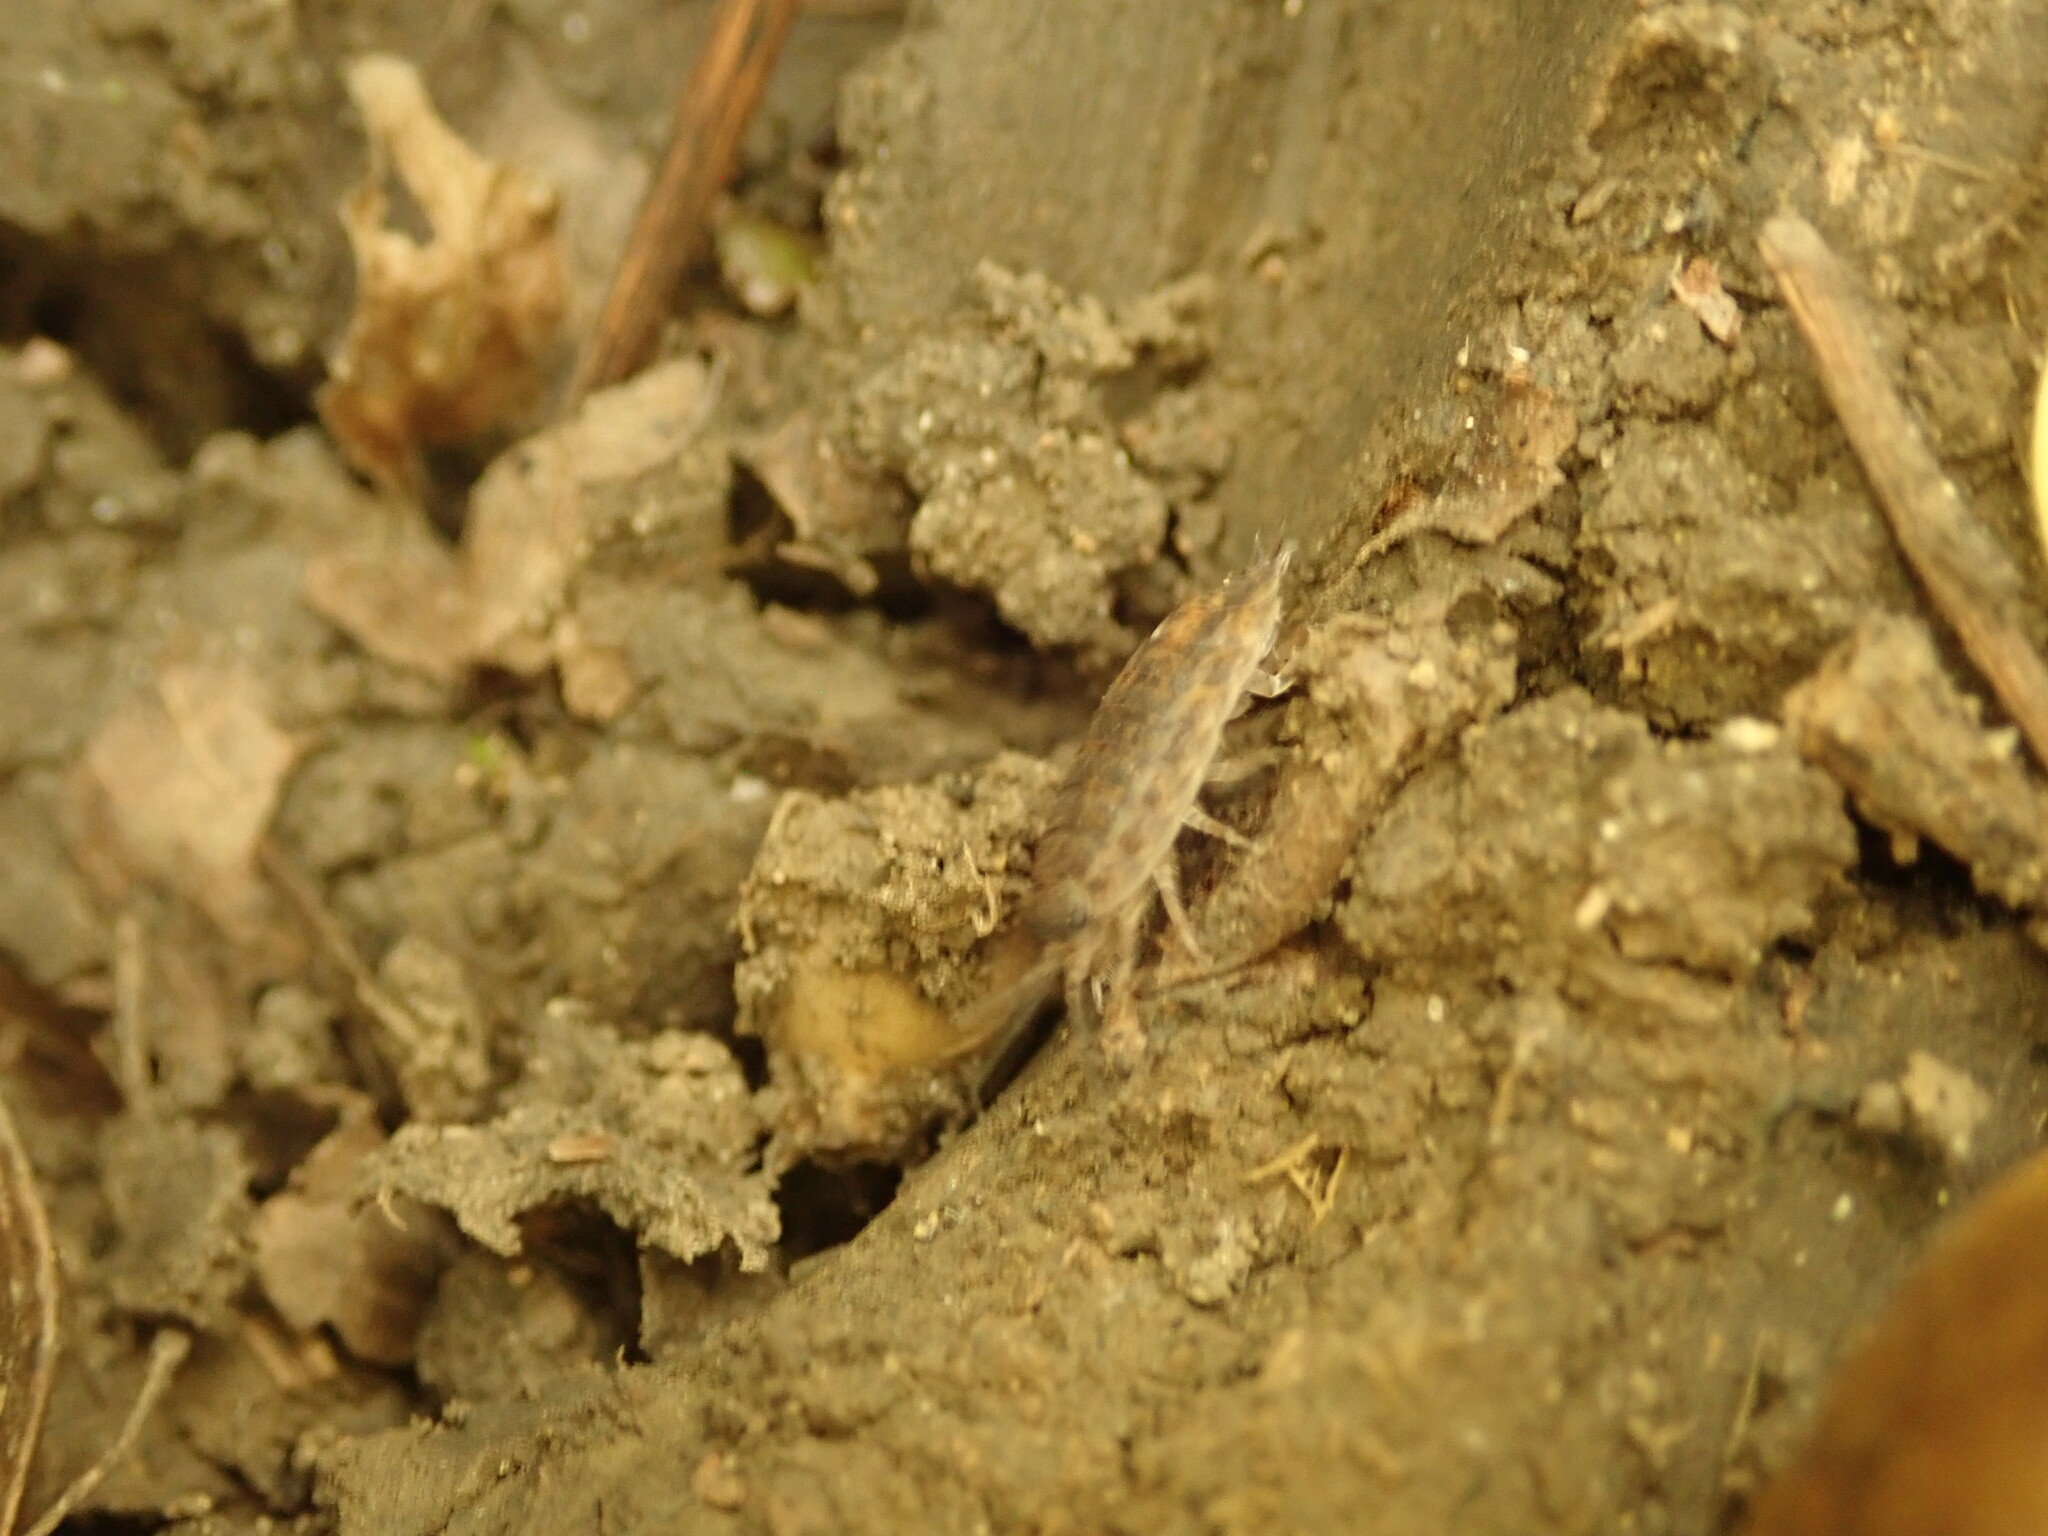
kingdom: Animalia
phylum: Arthropoda
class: Malacostraca
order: Isopoda
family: Trachelipodidae
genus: Trachelipus
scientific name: Trachelipus rathkii
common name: Isopod
